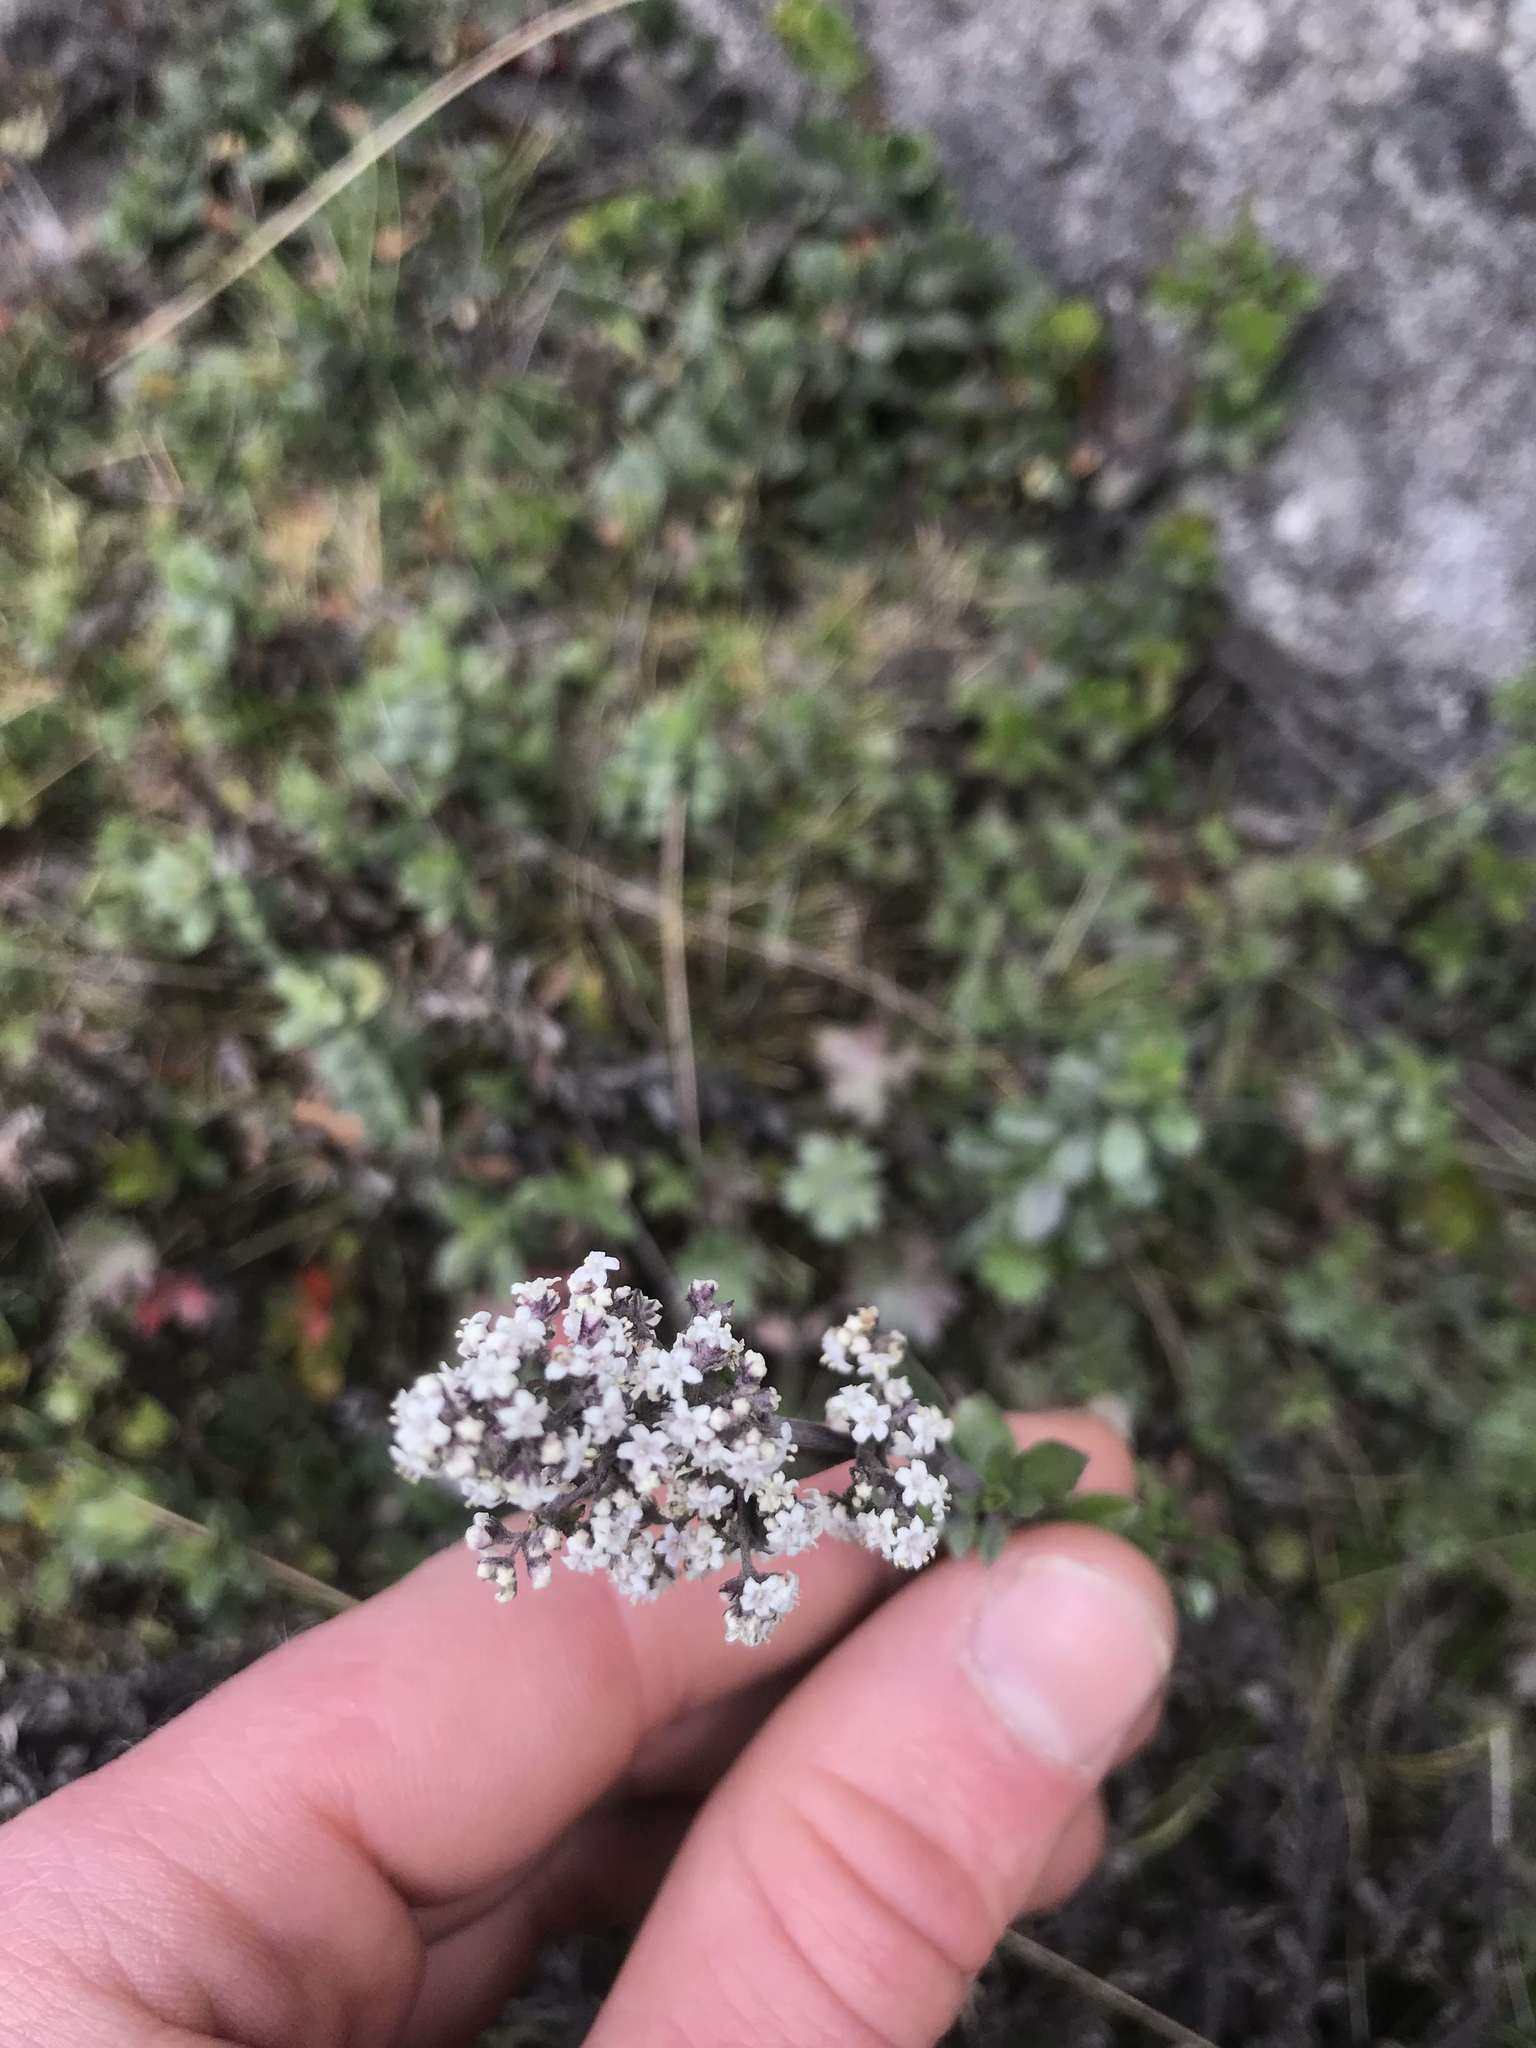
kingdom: Plantae
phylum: Tracheophyta
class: Magnoliopsida
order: Dipsacales
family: Caprifoliaceae
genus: Valeriana
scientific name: Valeriana microphylla
